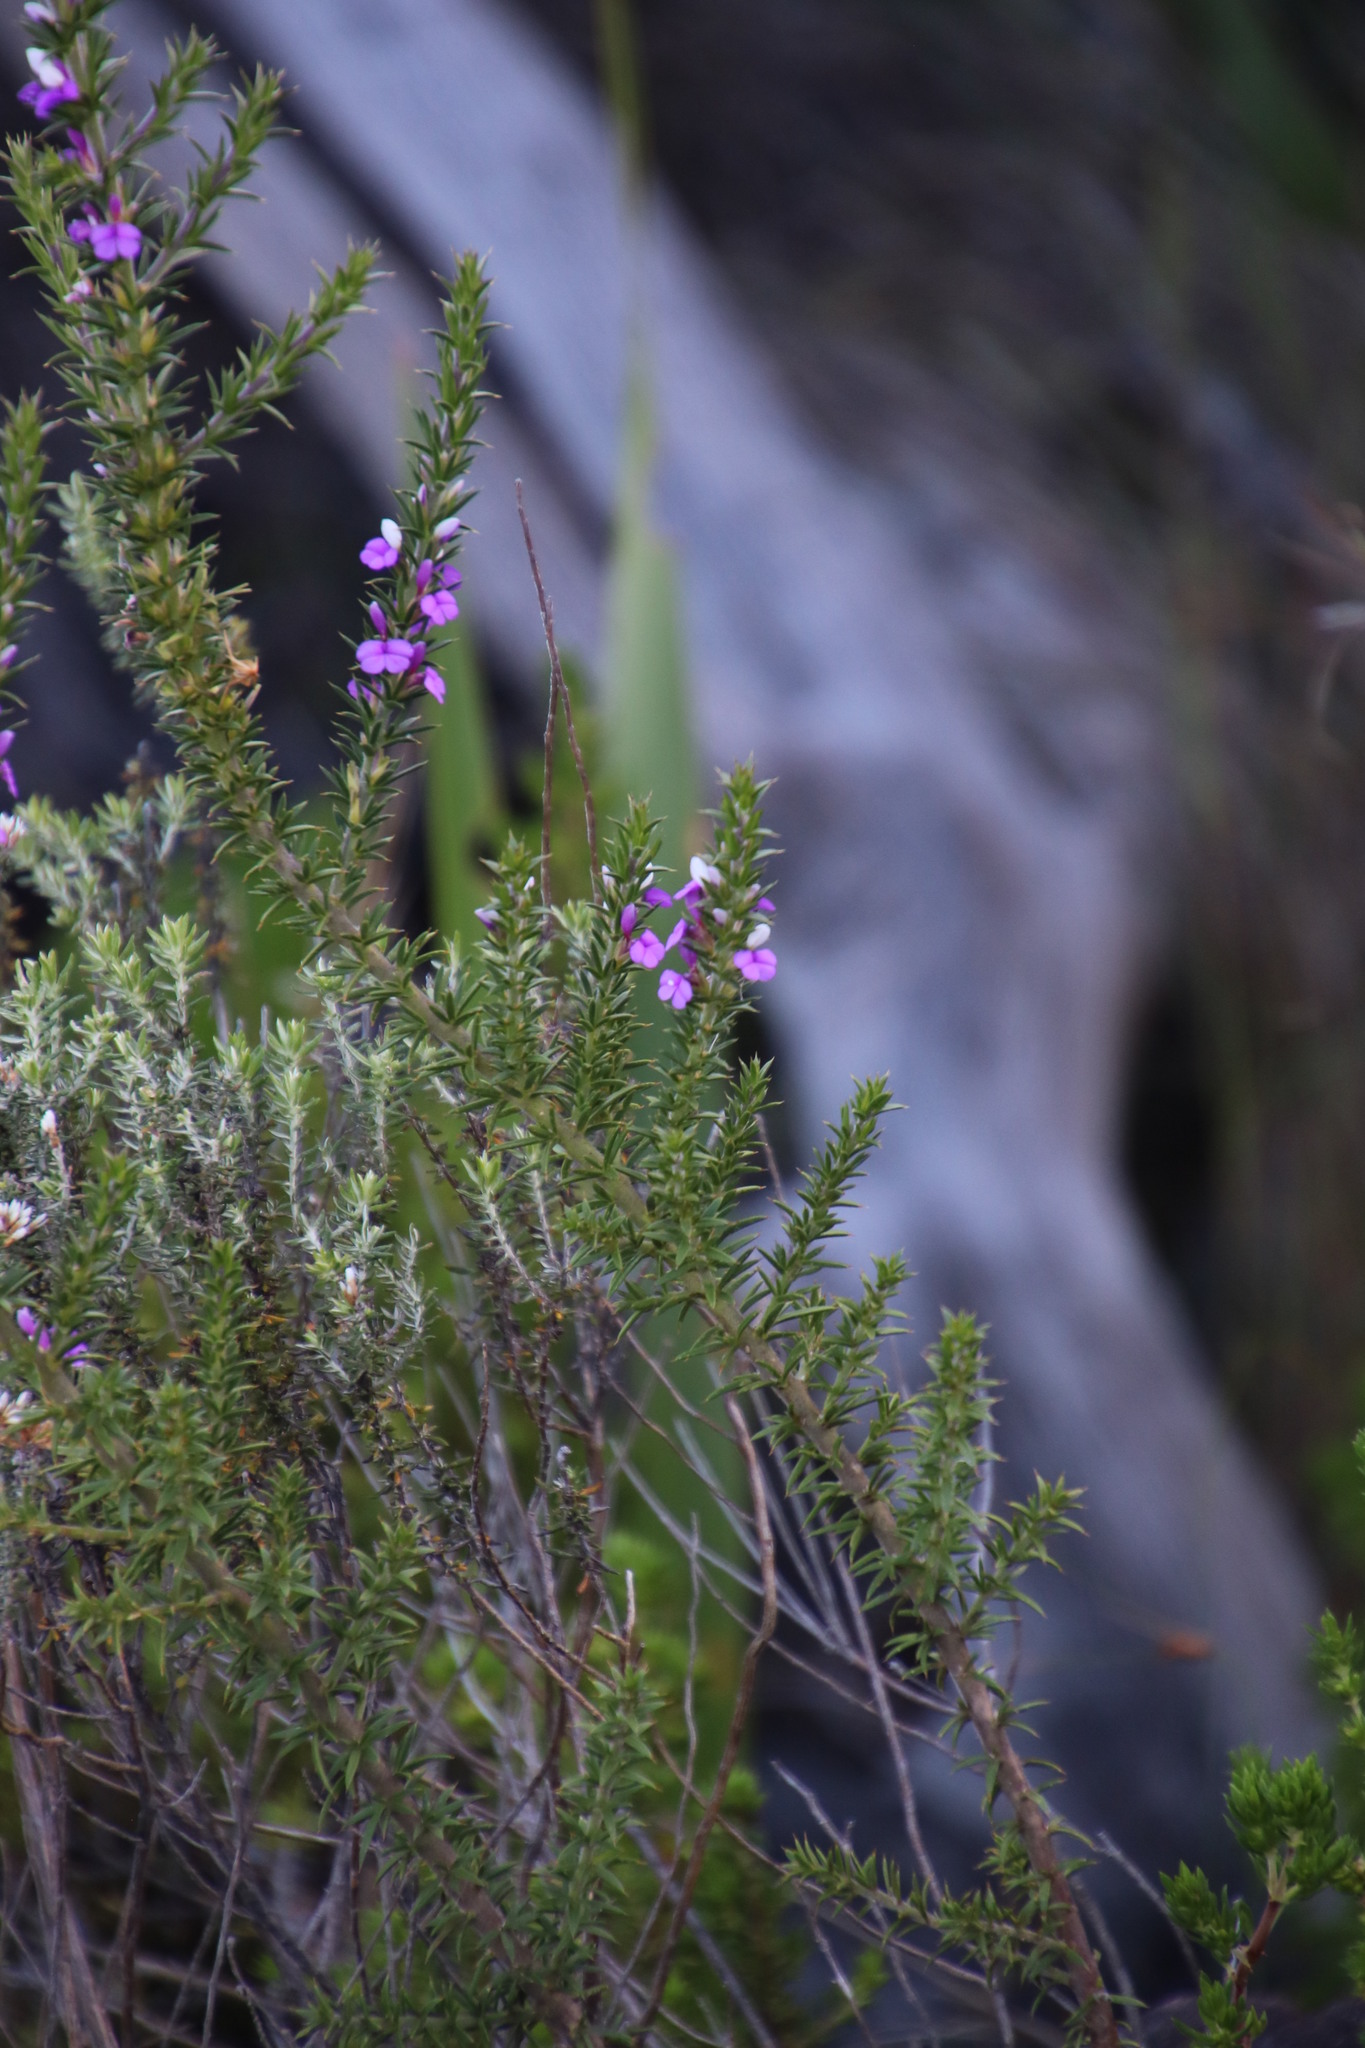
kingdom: Plantae
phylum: Tracheophyta
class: Magnoliopsida
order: Fabales
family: Polygalaceae
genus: Muraltia
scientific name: Muraltia heisteria
